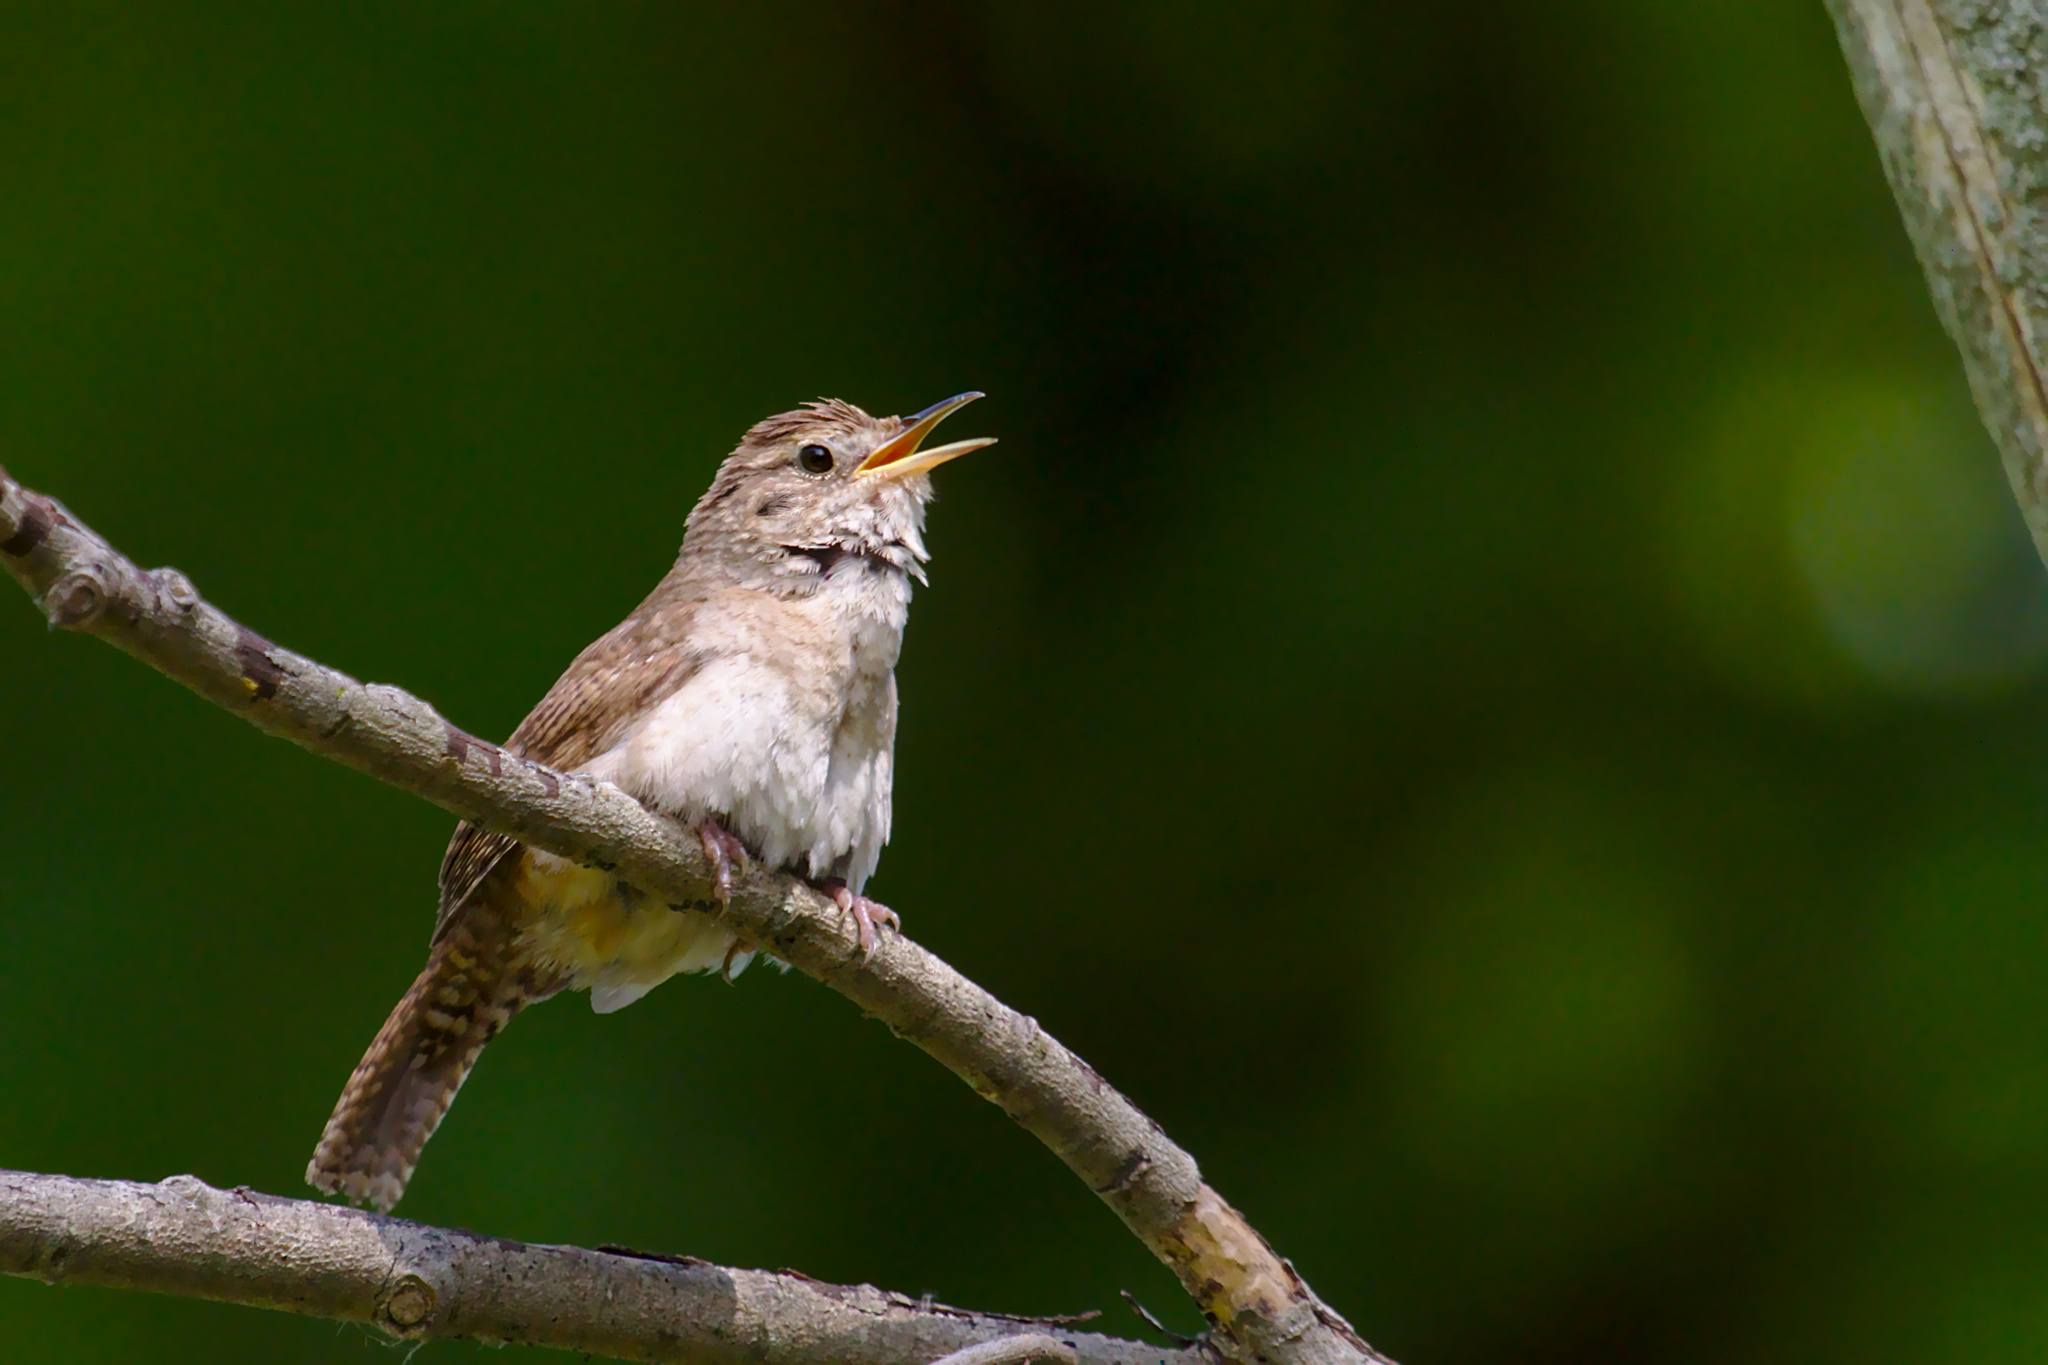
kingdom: Animalia
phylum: Chordata
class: Aves
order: Passeriformes
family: Troglodytidae
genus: Troglodytes
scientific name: Troglodytes aedon
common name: House wren
